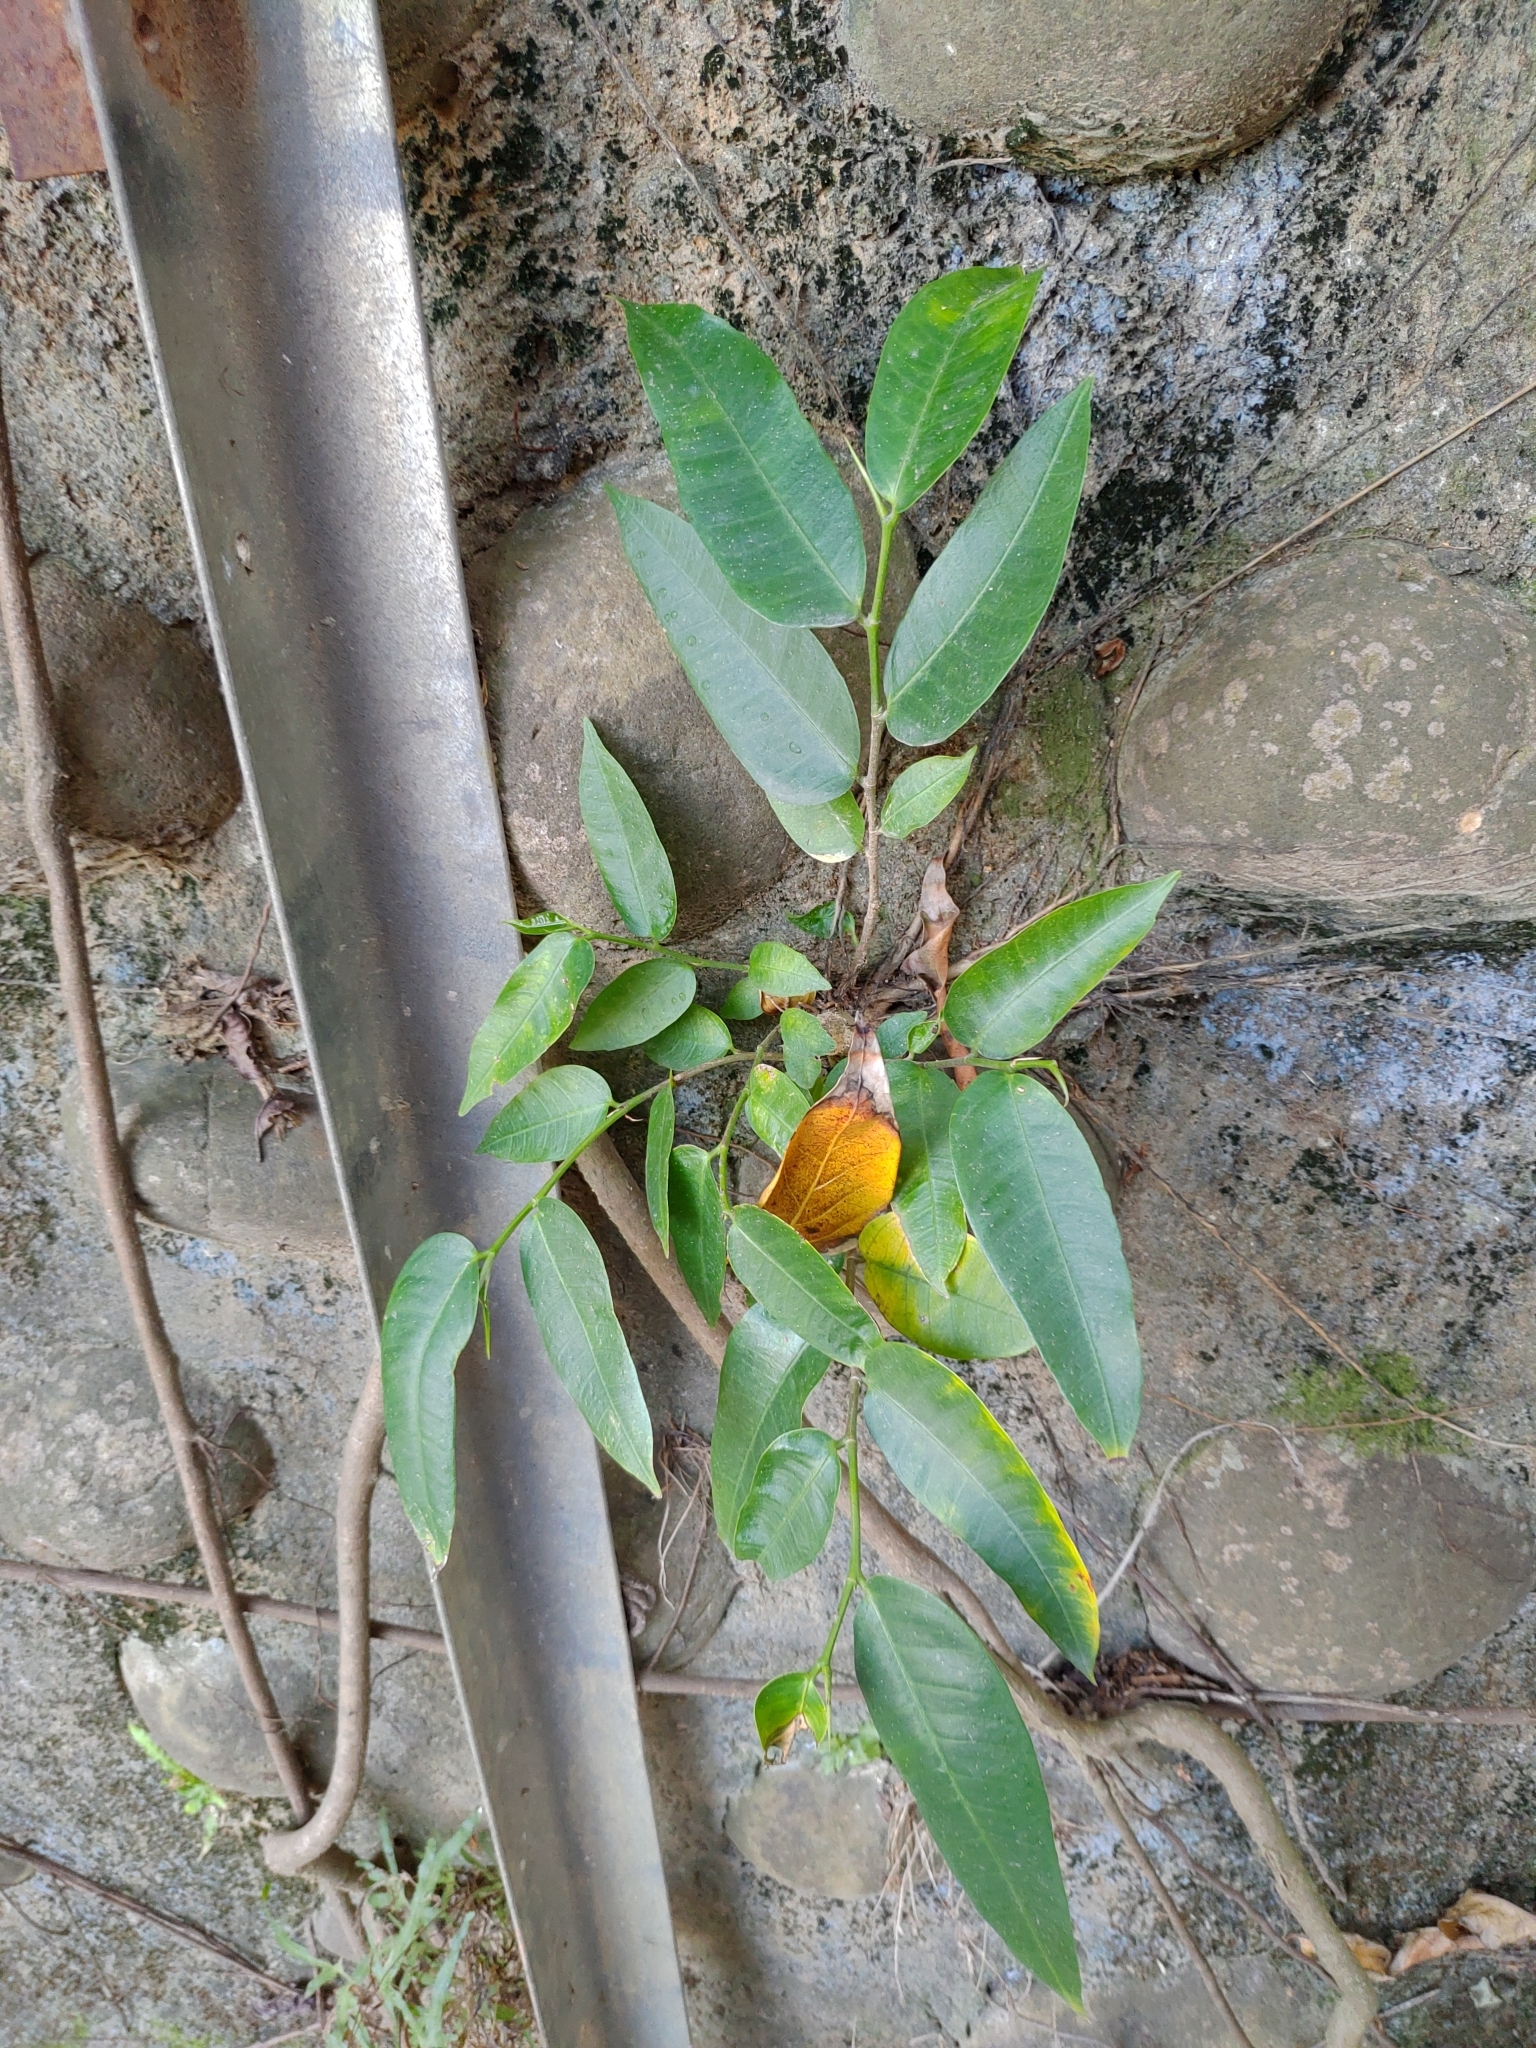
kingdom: Plantae
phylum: Tracheophyta
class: Magnoliopsida
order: Rosales
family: Moraceae
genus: Ficus
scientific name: Ficus virgata
